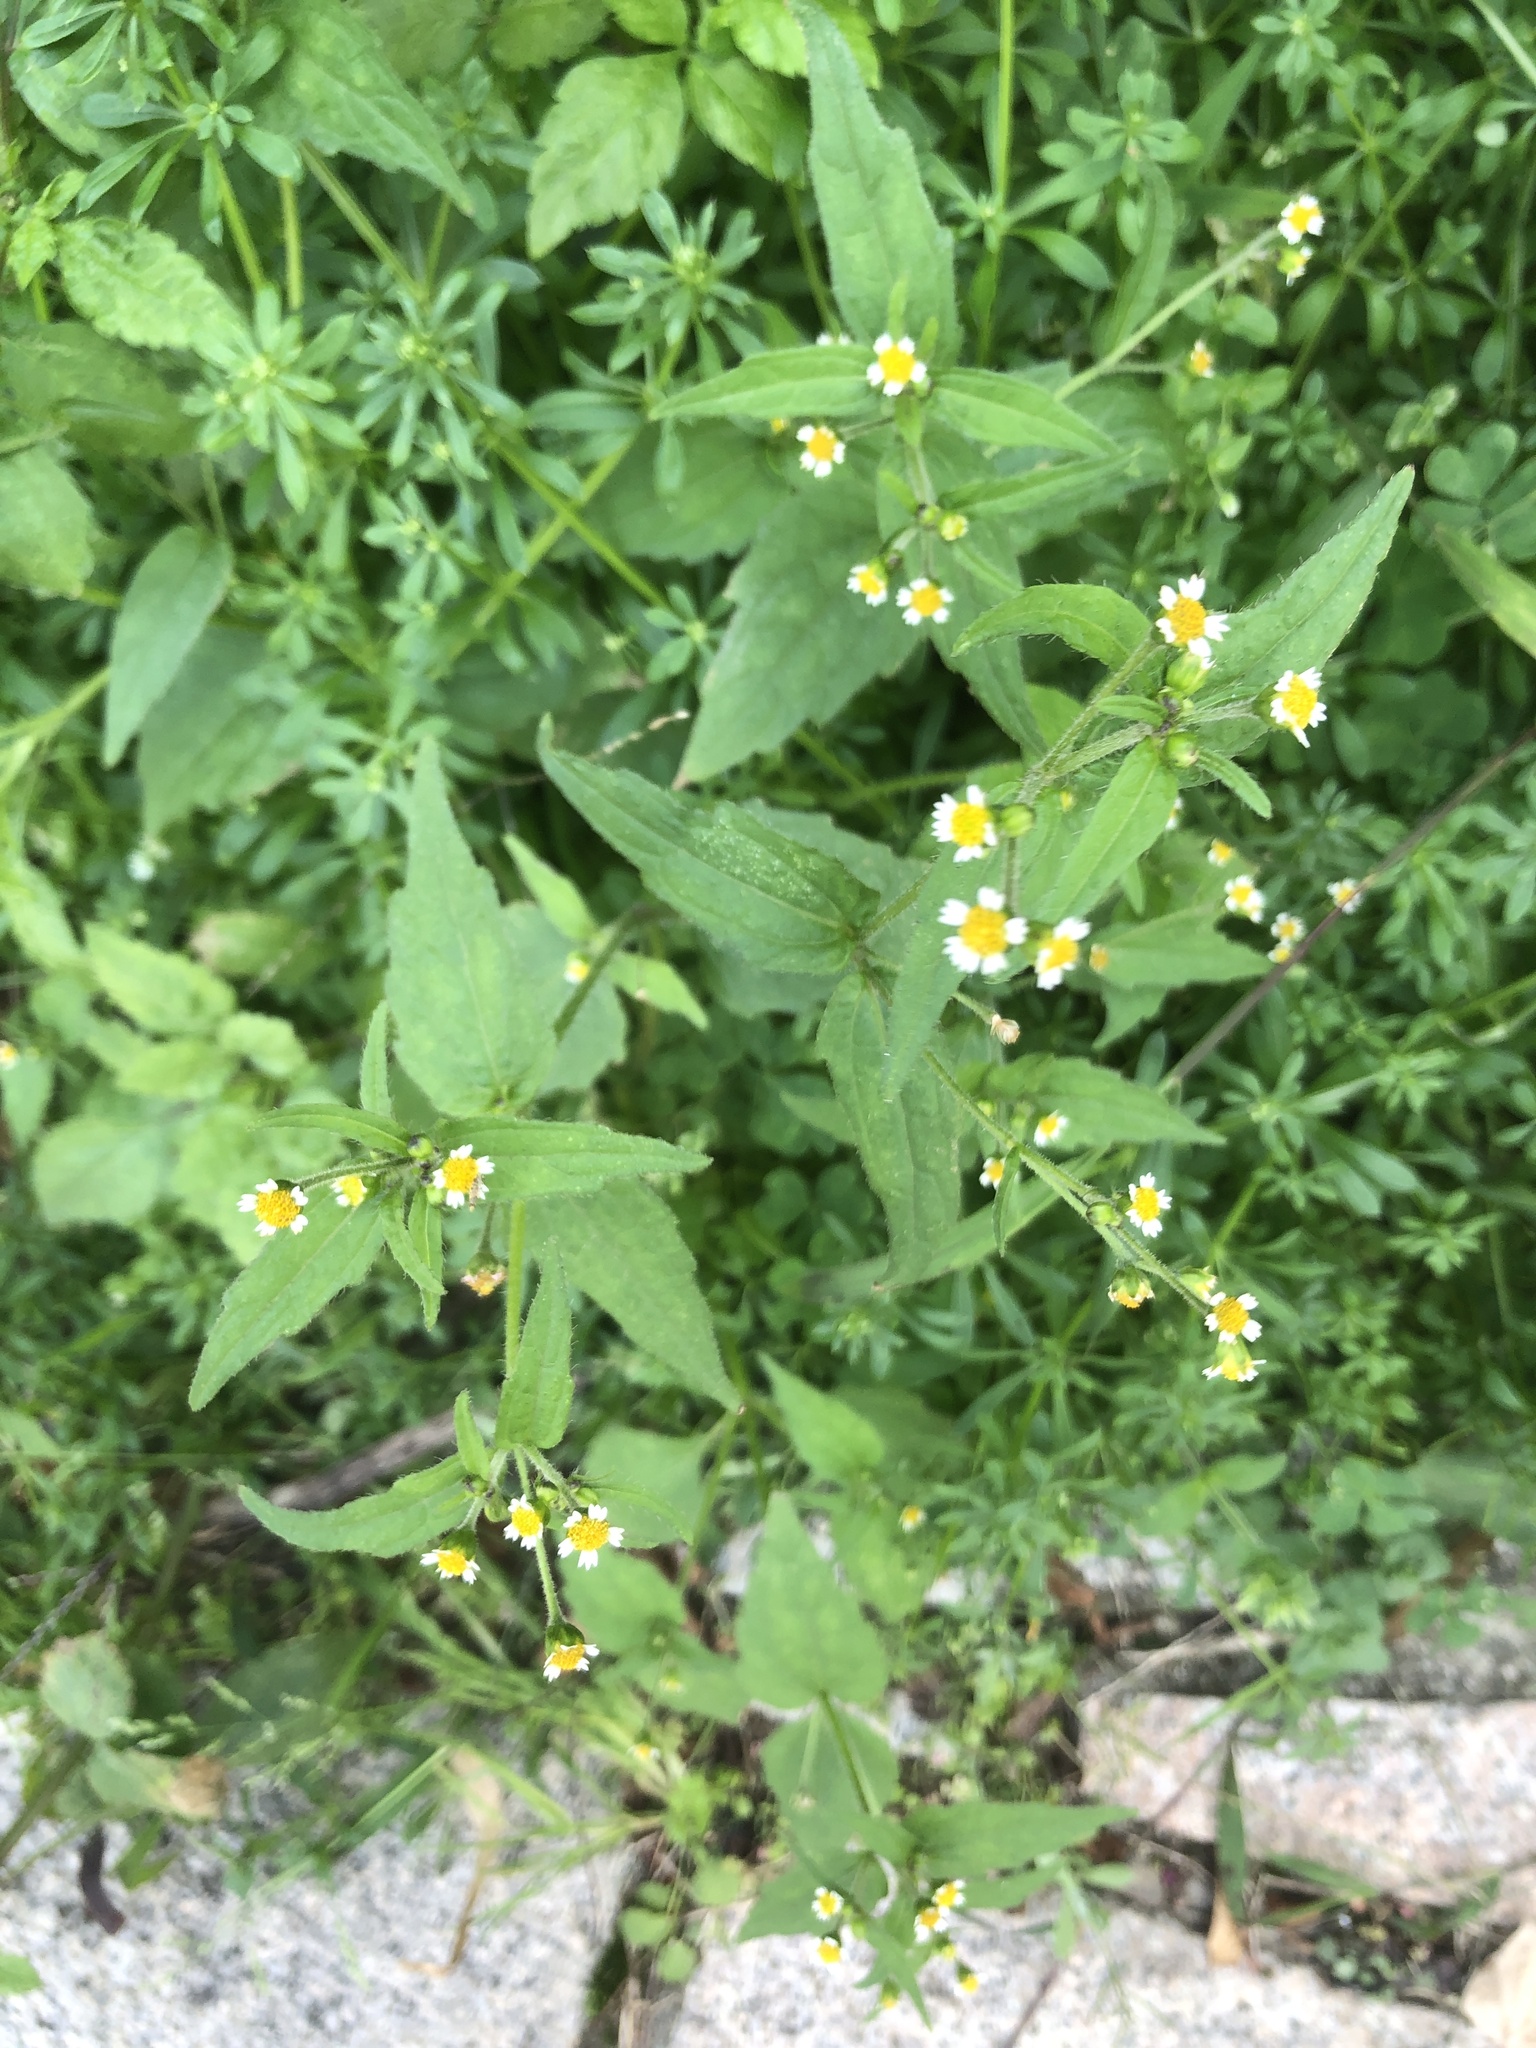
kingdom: Plantae
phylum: Tracheophyta
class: Magnoliopsida
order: Asterales
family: Asteraceae
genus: Galinsoga
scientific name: Galinsoga quadriradiata
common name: Shaggy soldier
